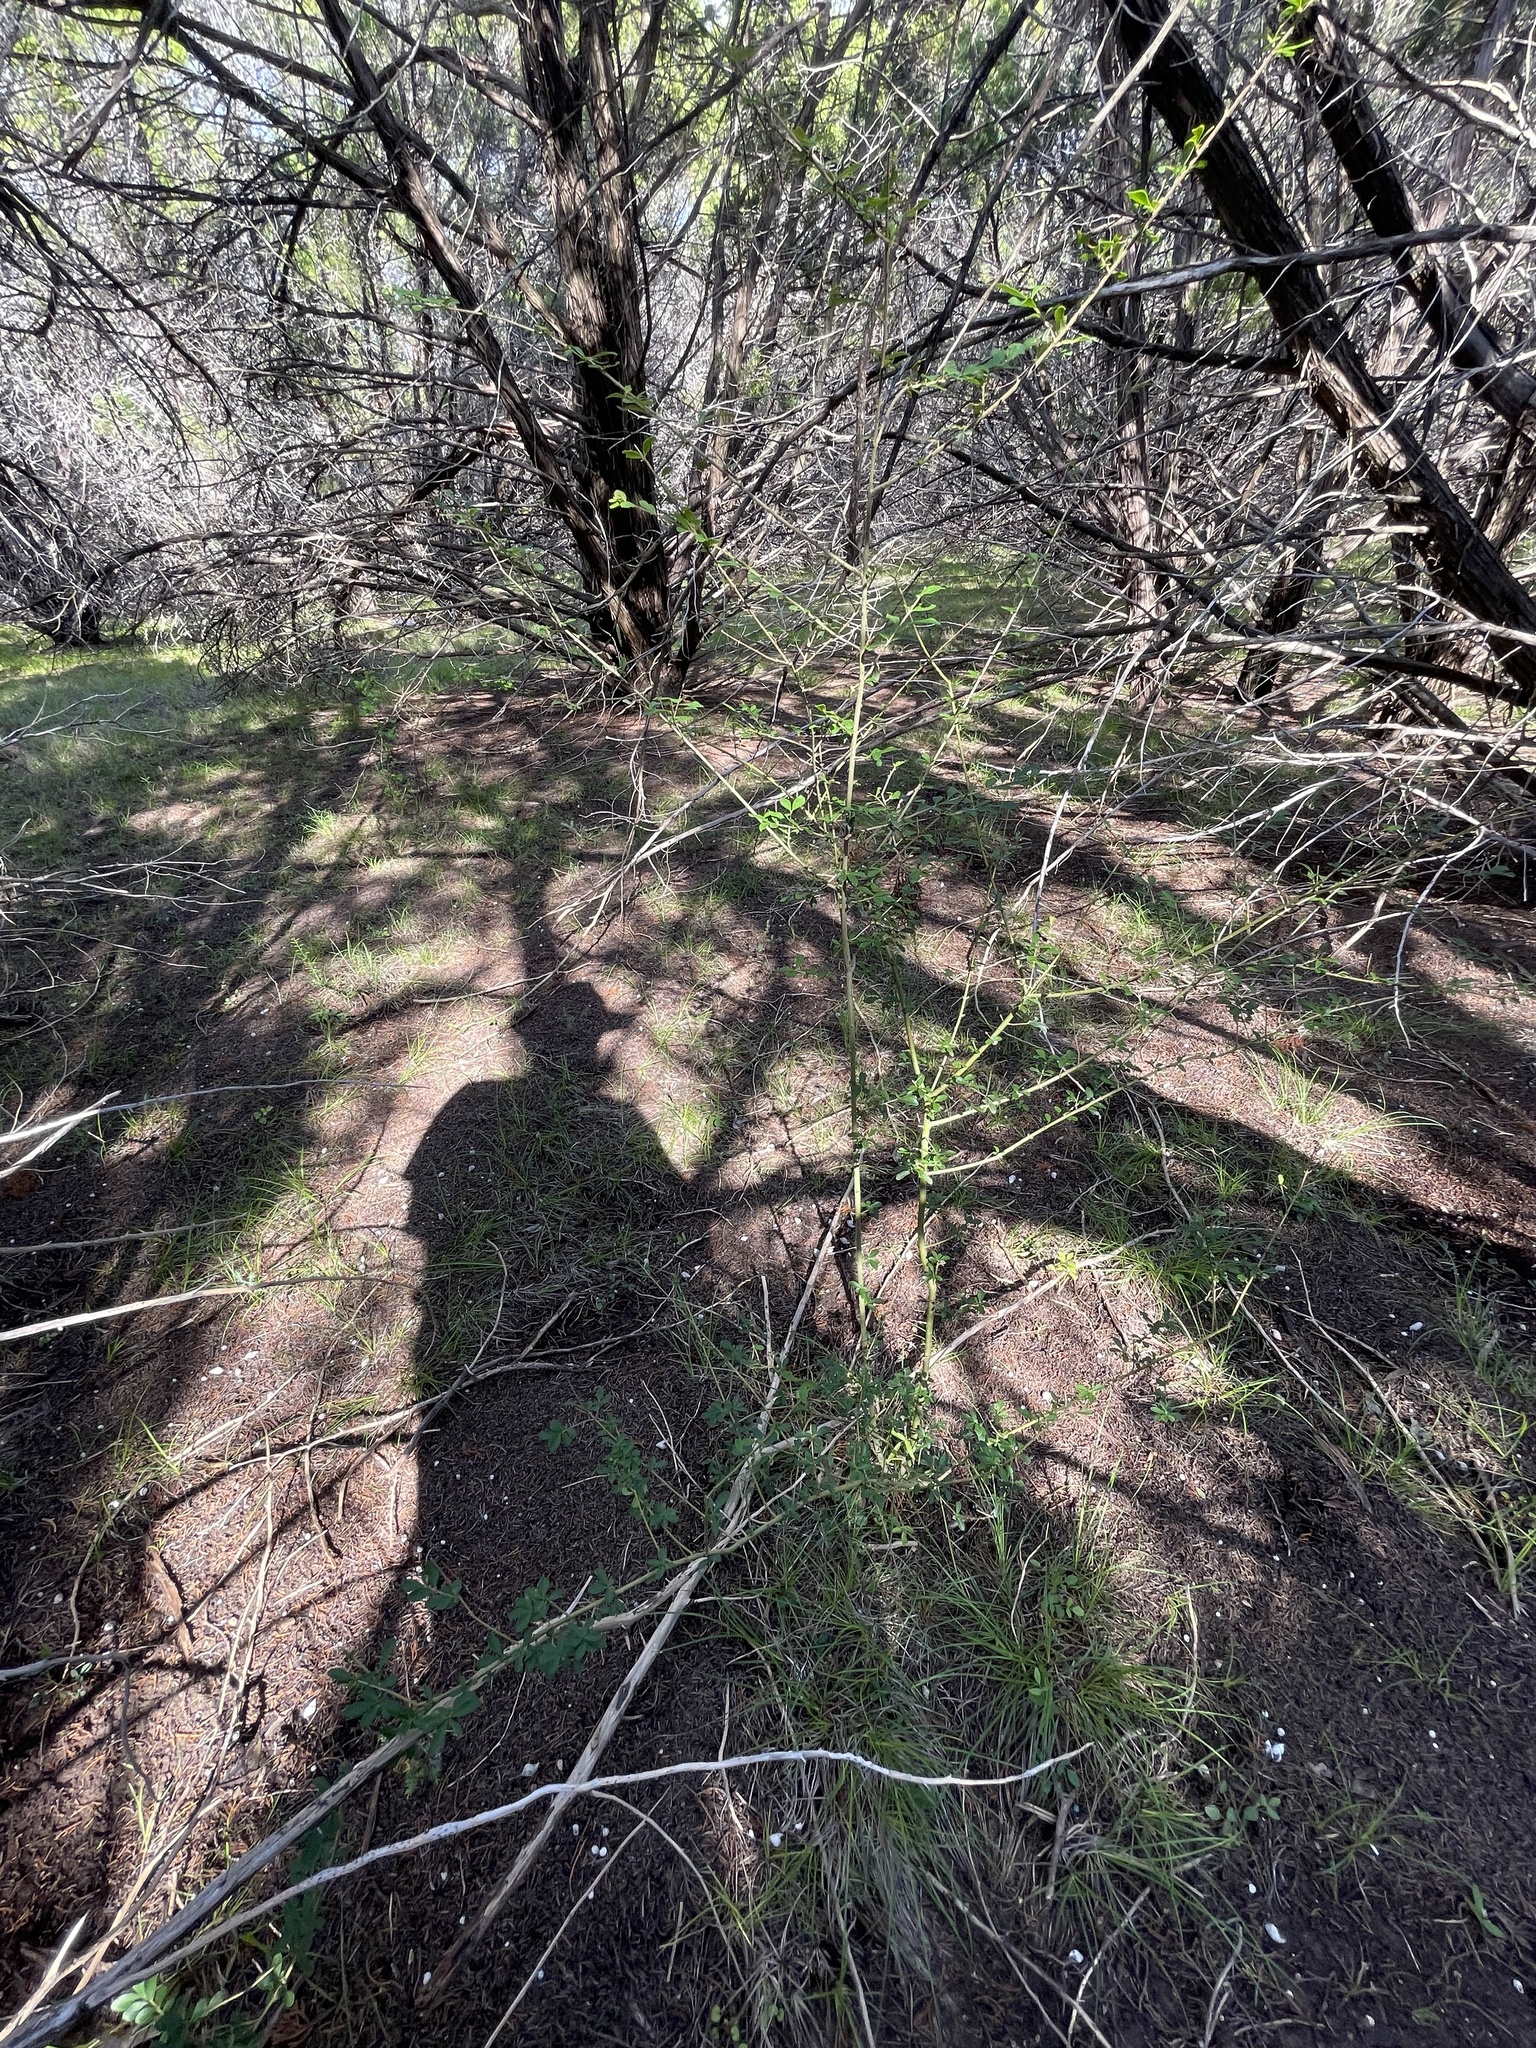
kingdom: Plantae
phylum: Tracheophyta
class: Magnoliopsida
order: Lamiales
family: Oleaceae
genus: Ligustrum
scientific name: Ligustrum quihoui
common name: Waxyleaf privet
